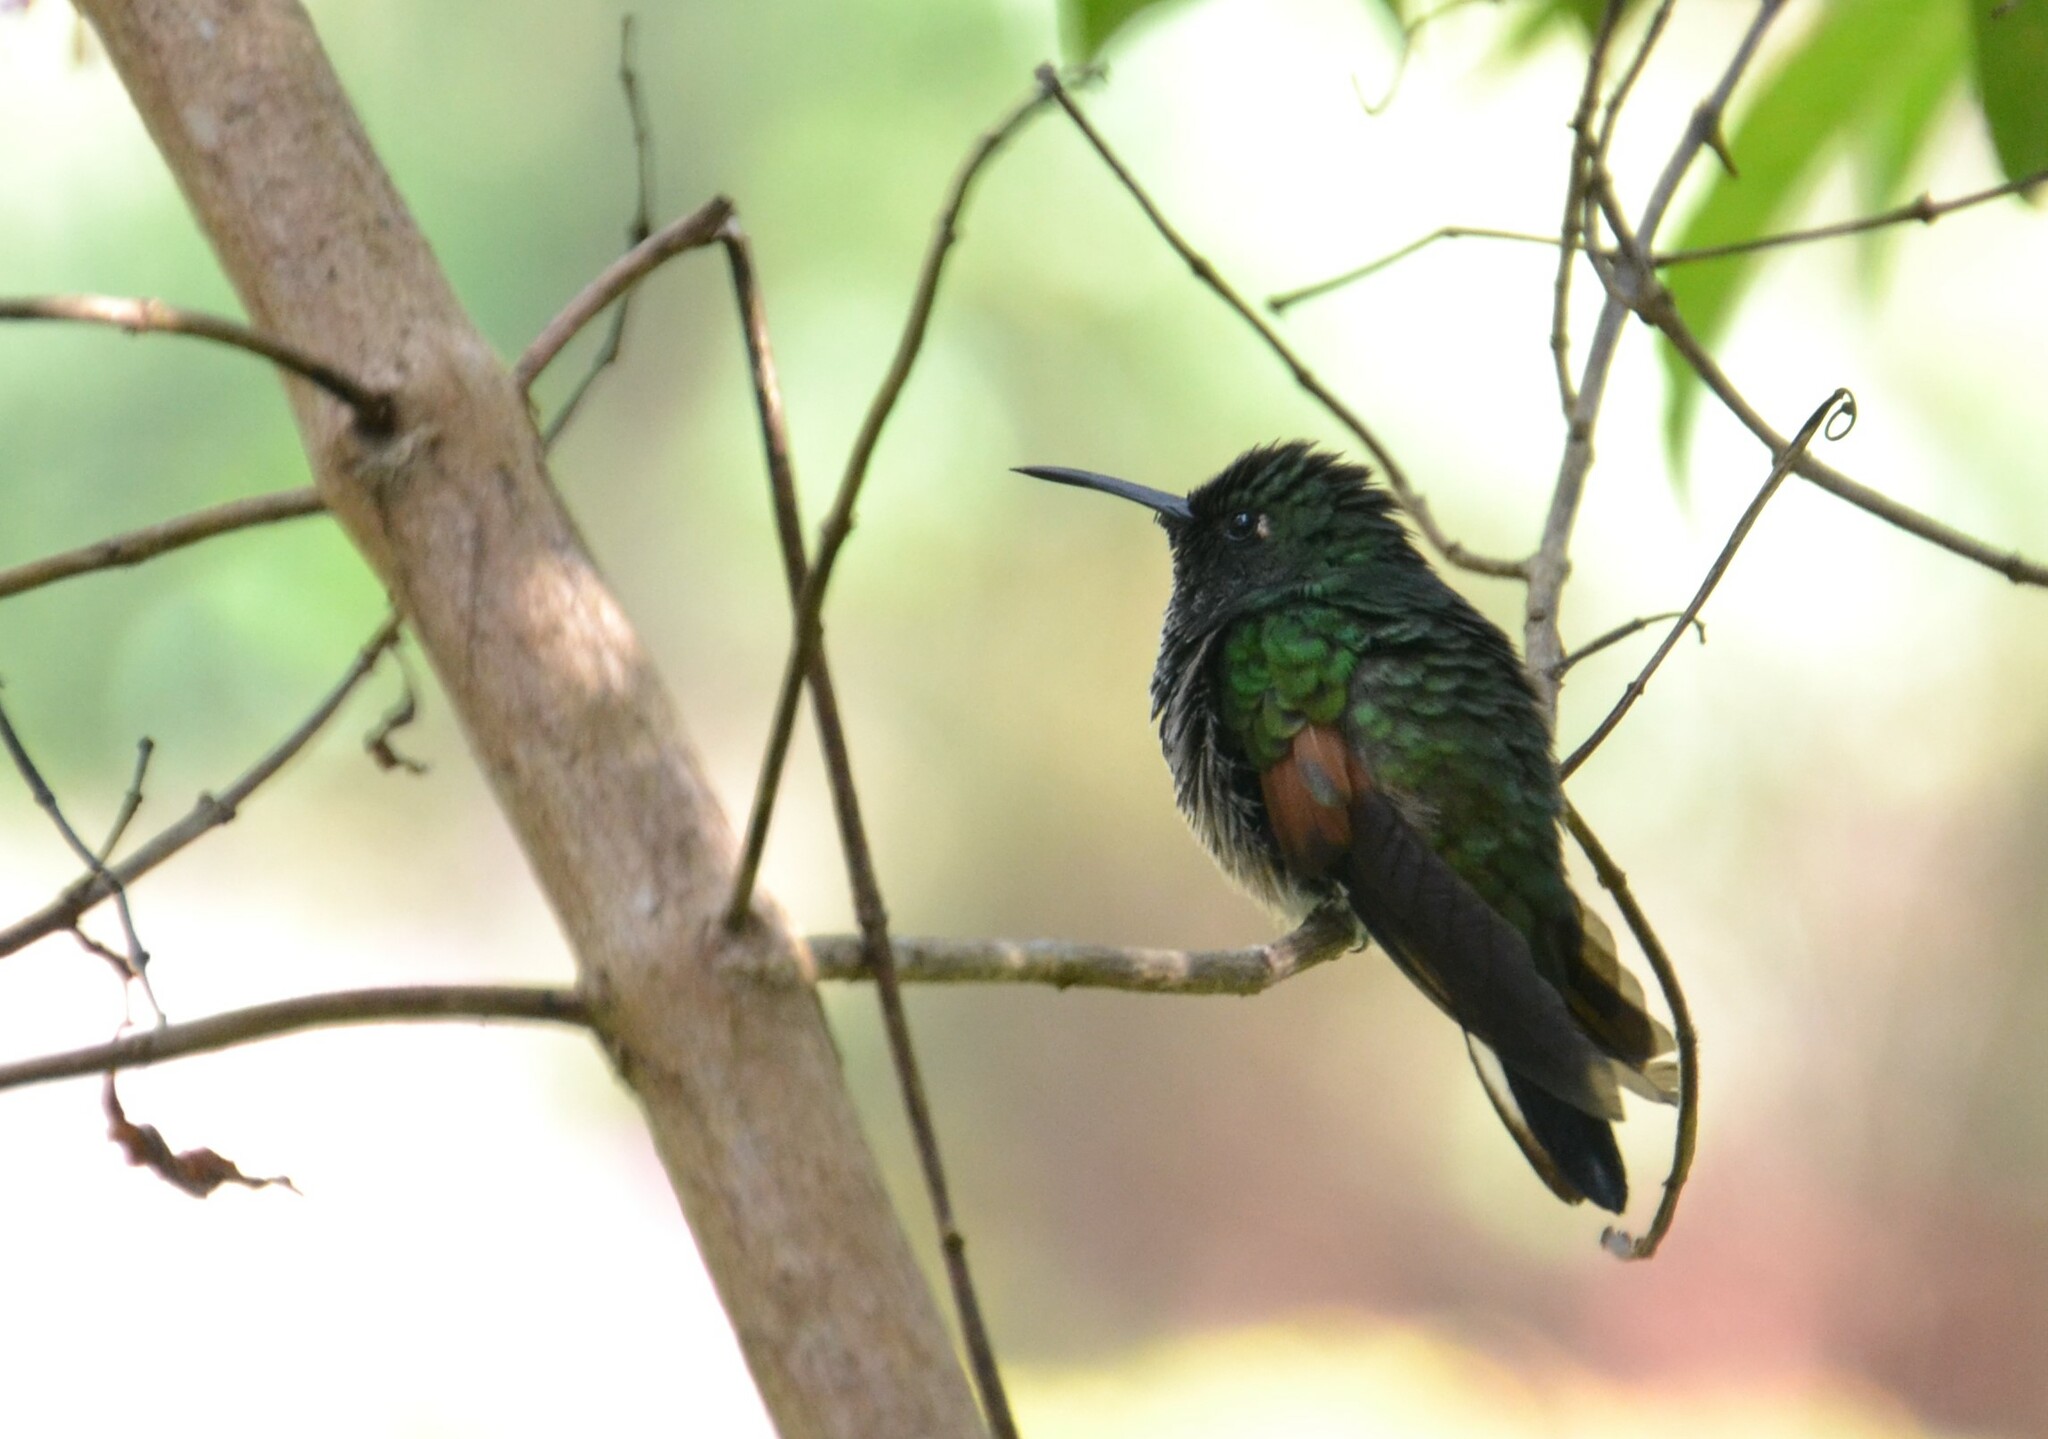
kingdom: Animalia
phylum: Chordata
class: Aves
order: Apodiformes
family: Trochilidae
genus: Eupherusa
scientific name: Eupherusa eximia
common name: Stripe-tailed hummingbird
